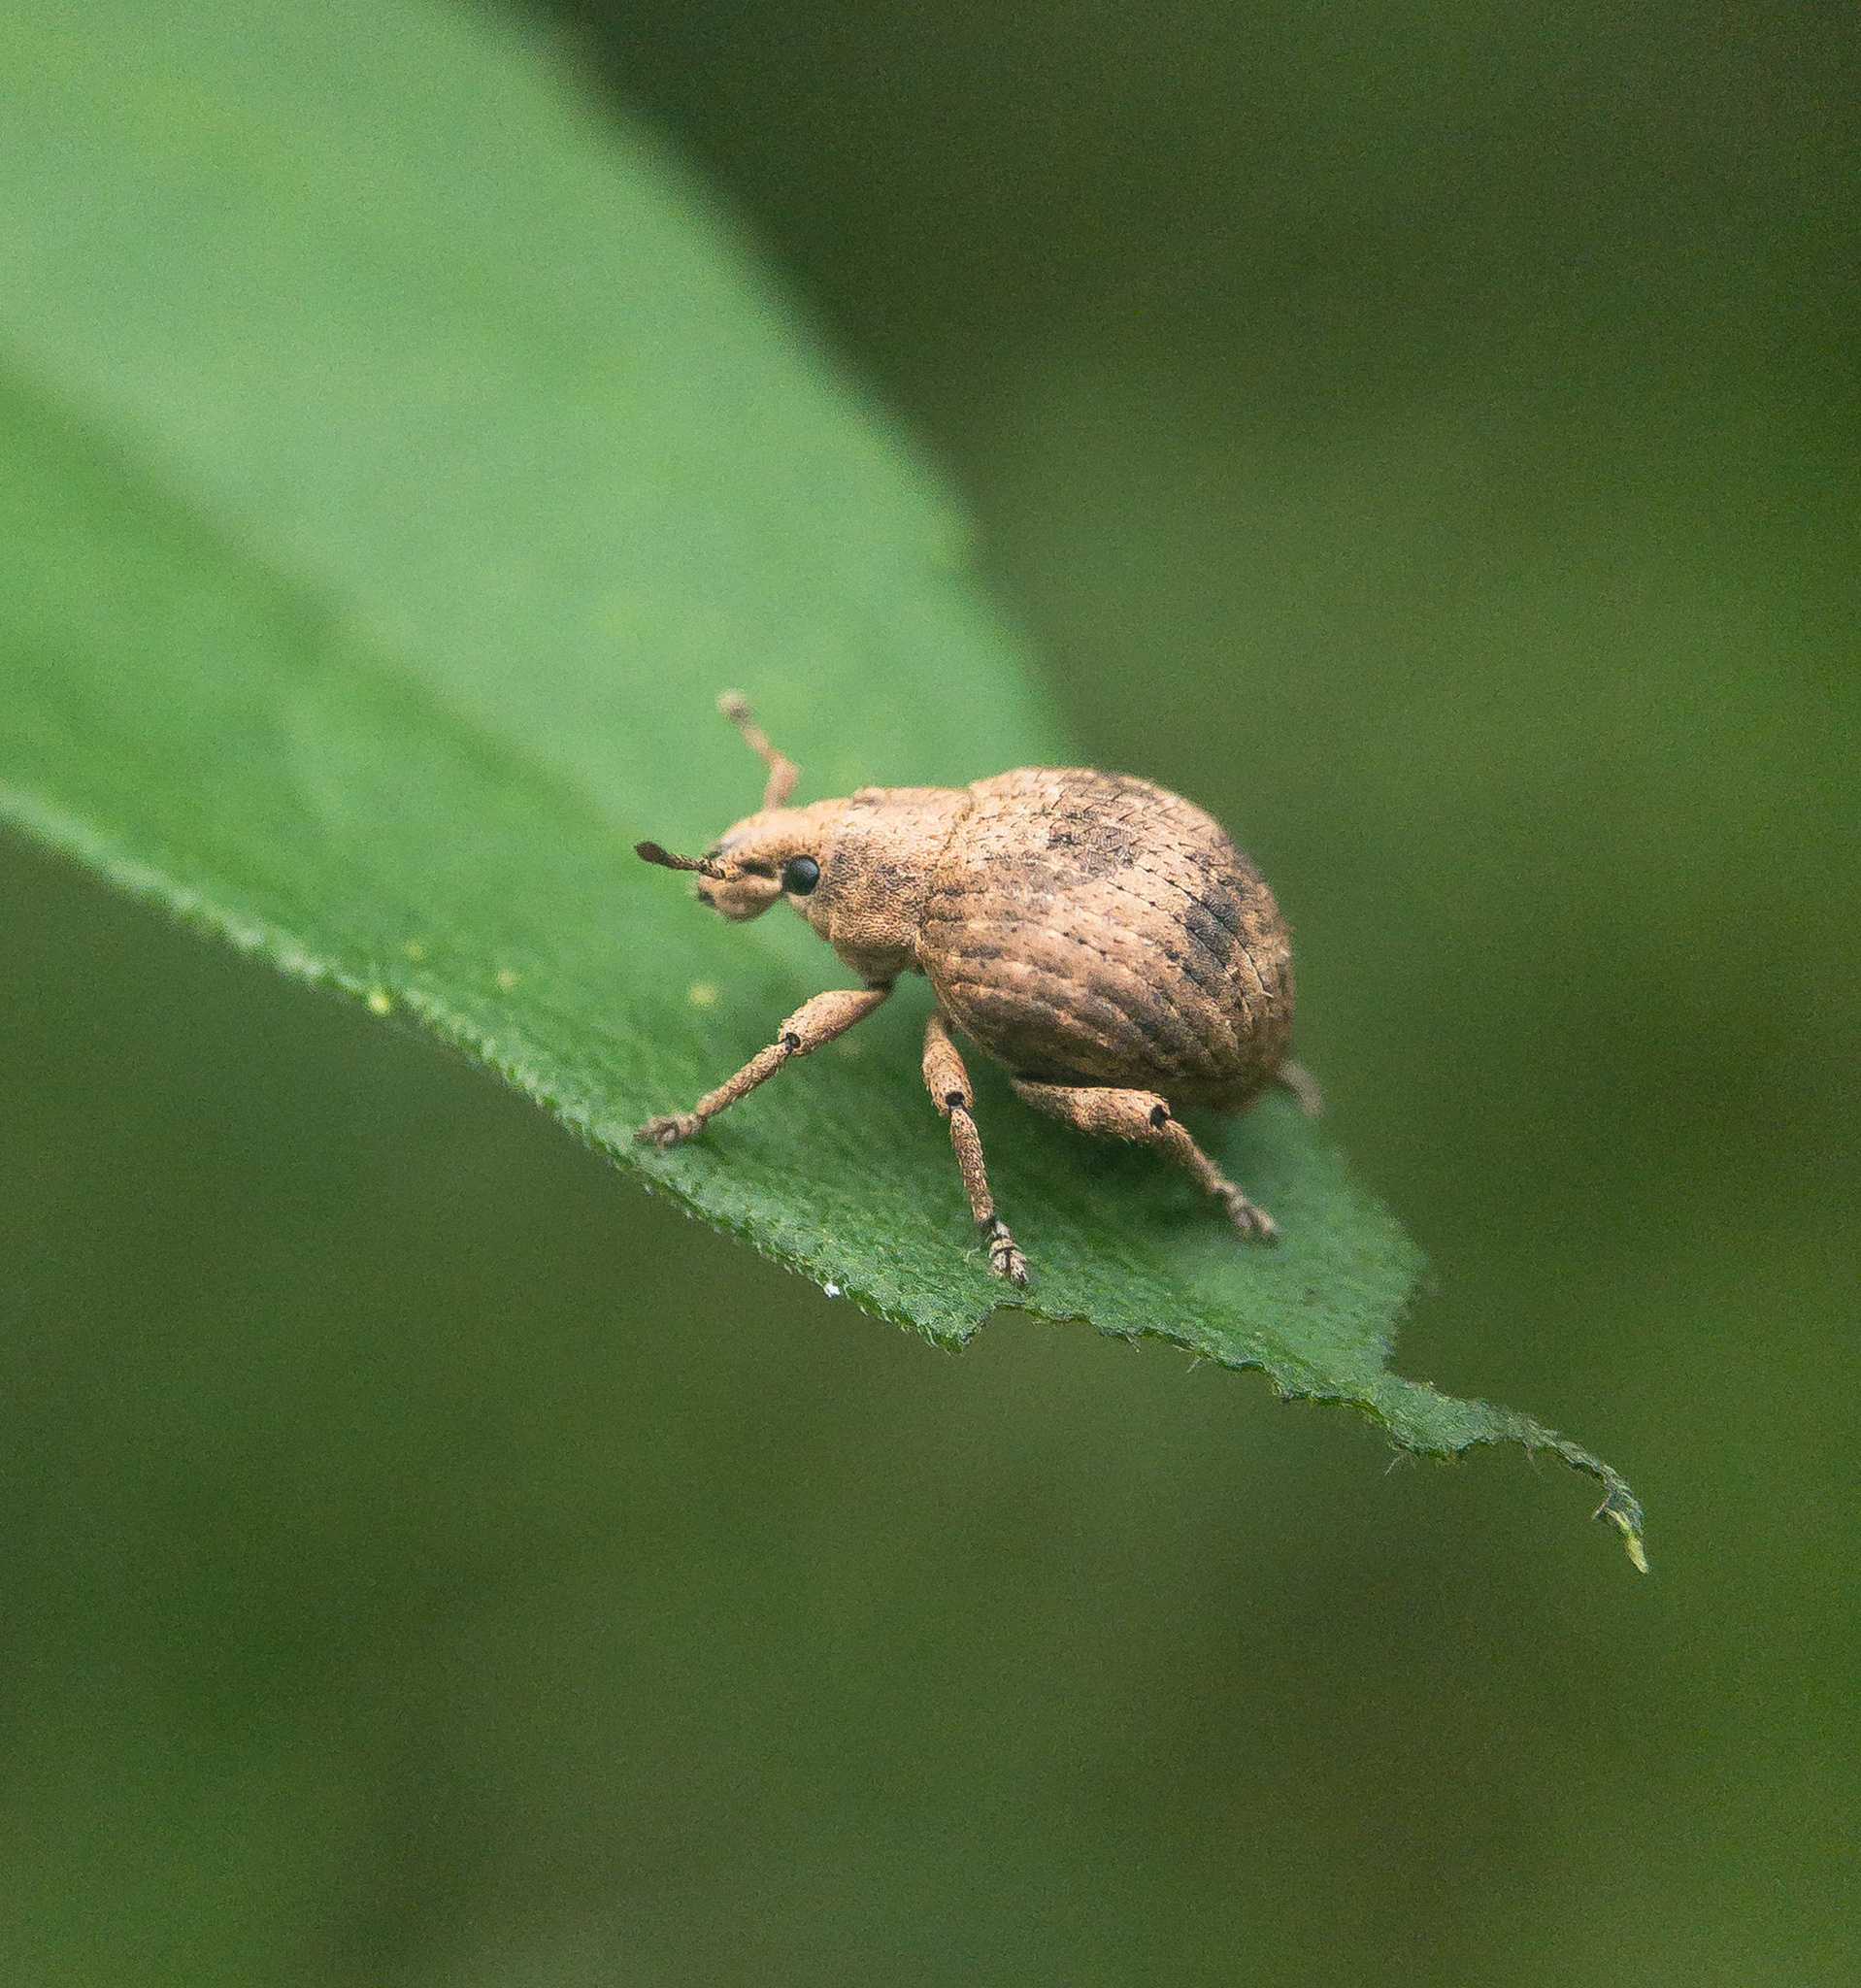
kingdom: Animalia
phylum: Arthropoda
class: Insecta
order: Coleoptera
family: Curculionidae
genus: Pseudocneorhinus
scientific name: Pseudocneorhinus bifasciatus
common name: Two-banded japanese weevil
